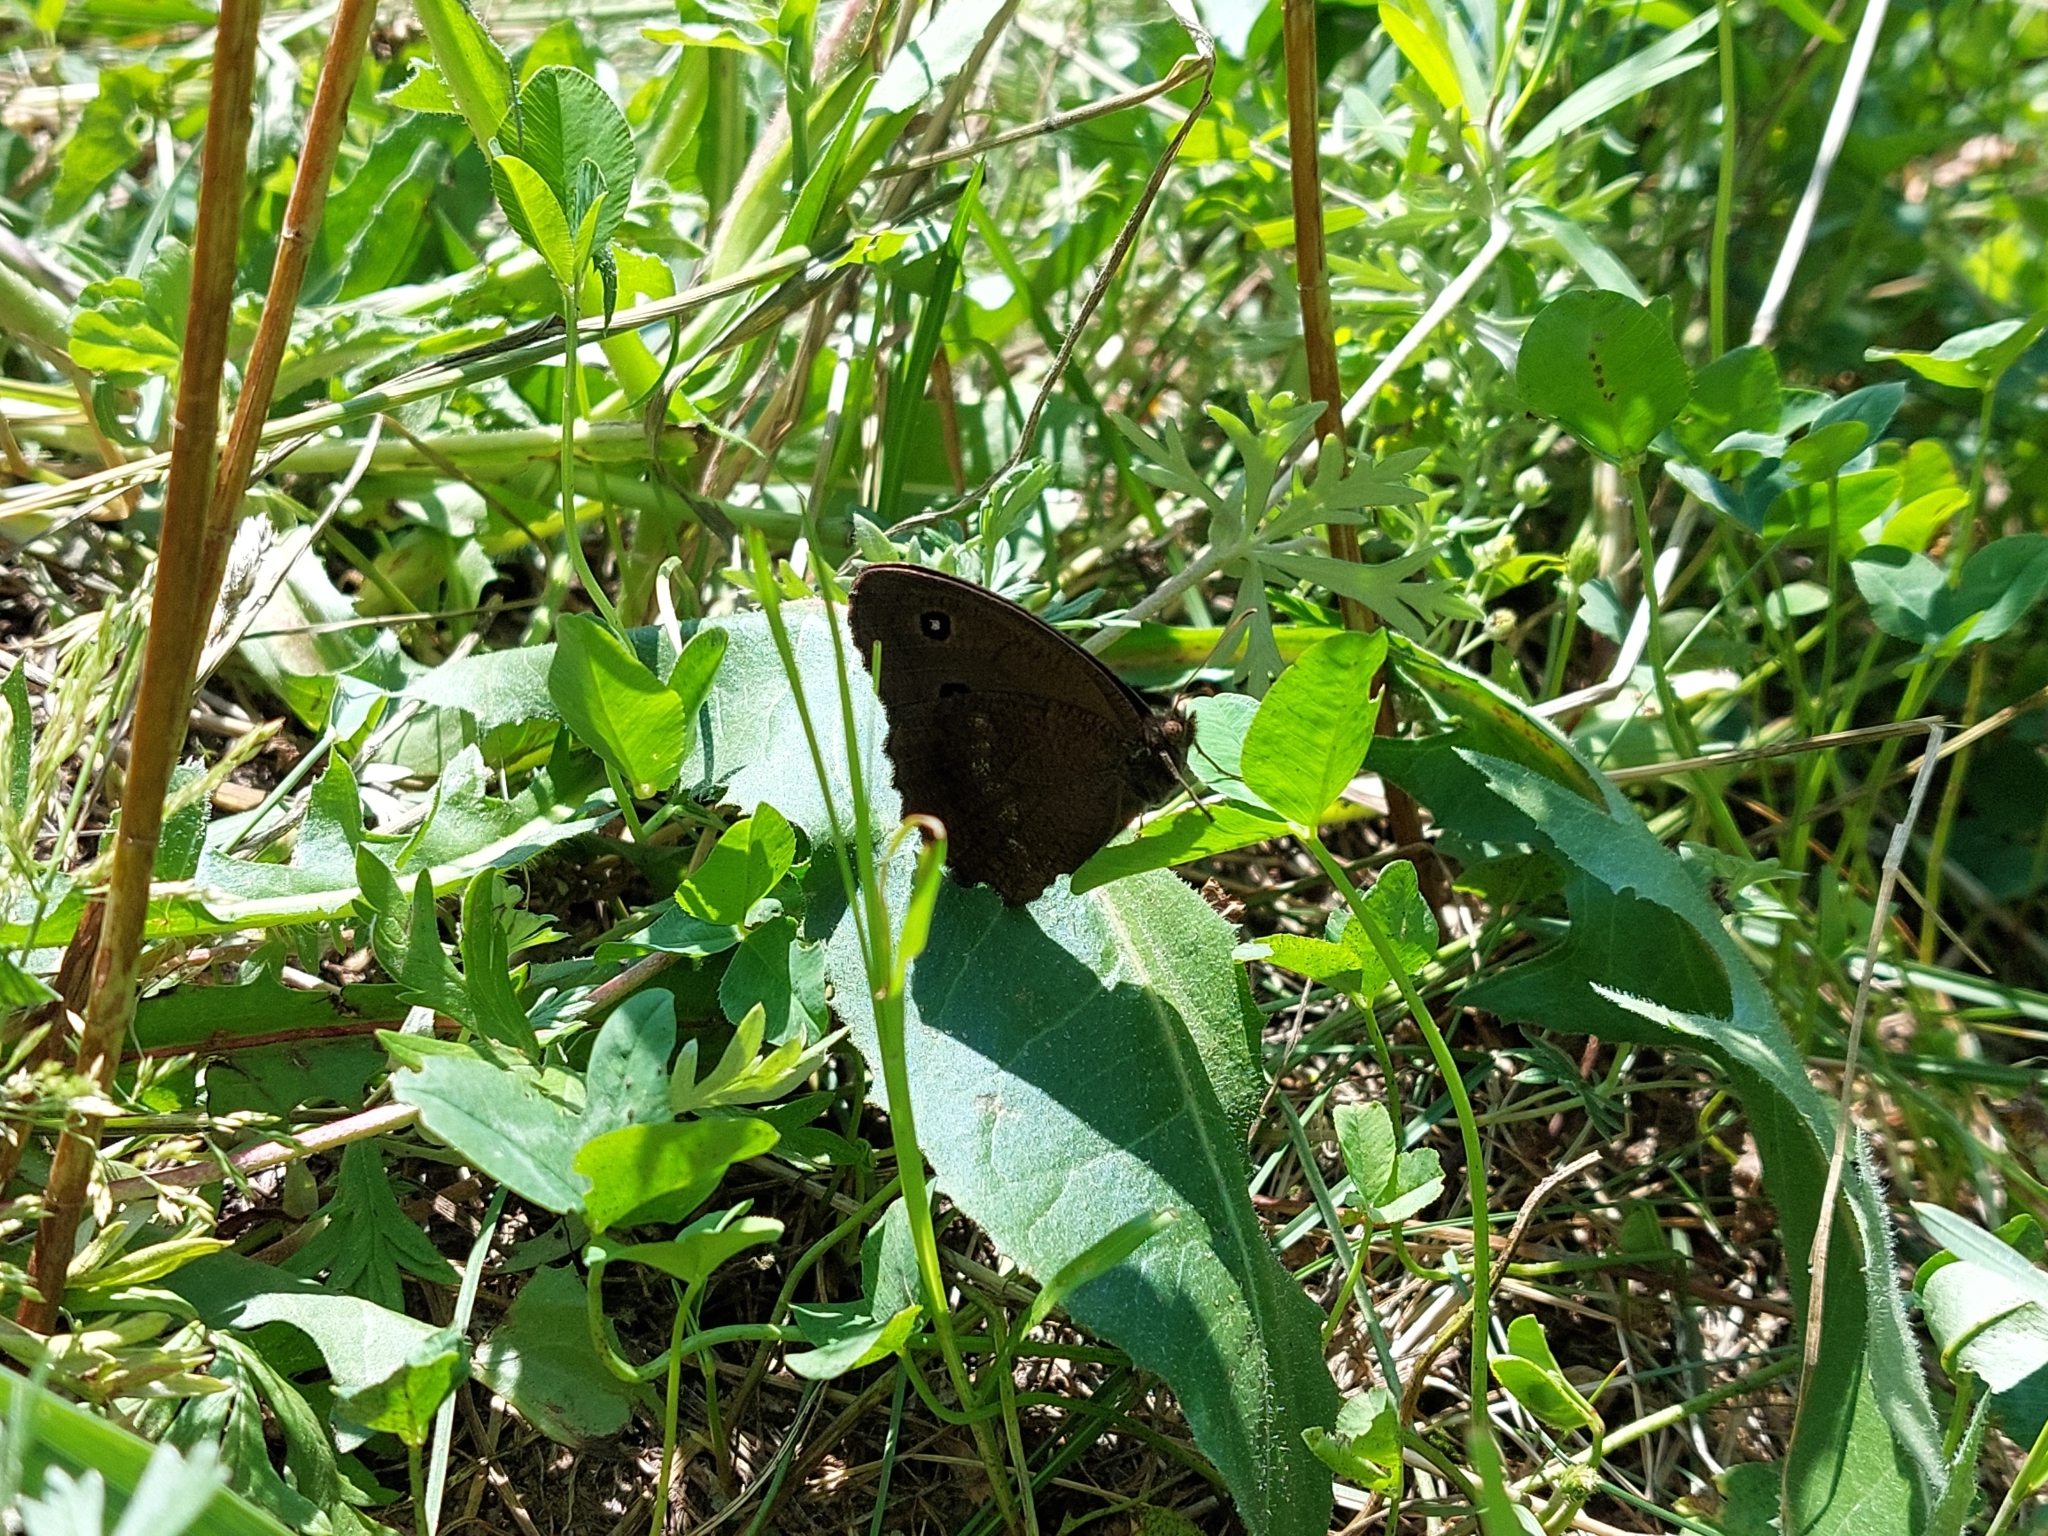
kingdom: Animalia
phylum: Arthropoda
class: Insecta
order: Lepidoptera
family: Nymphalidae
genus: Minois
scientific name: Minois dryas
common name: Dryad
